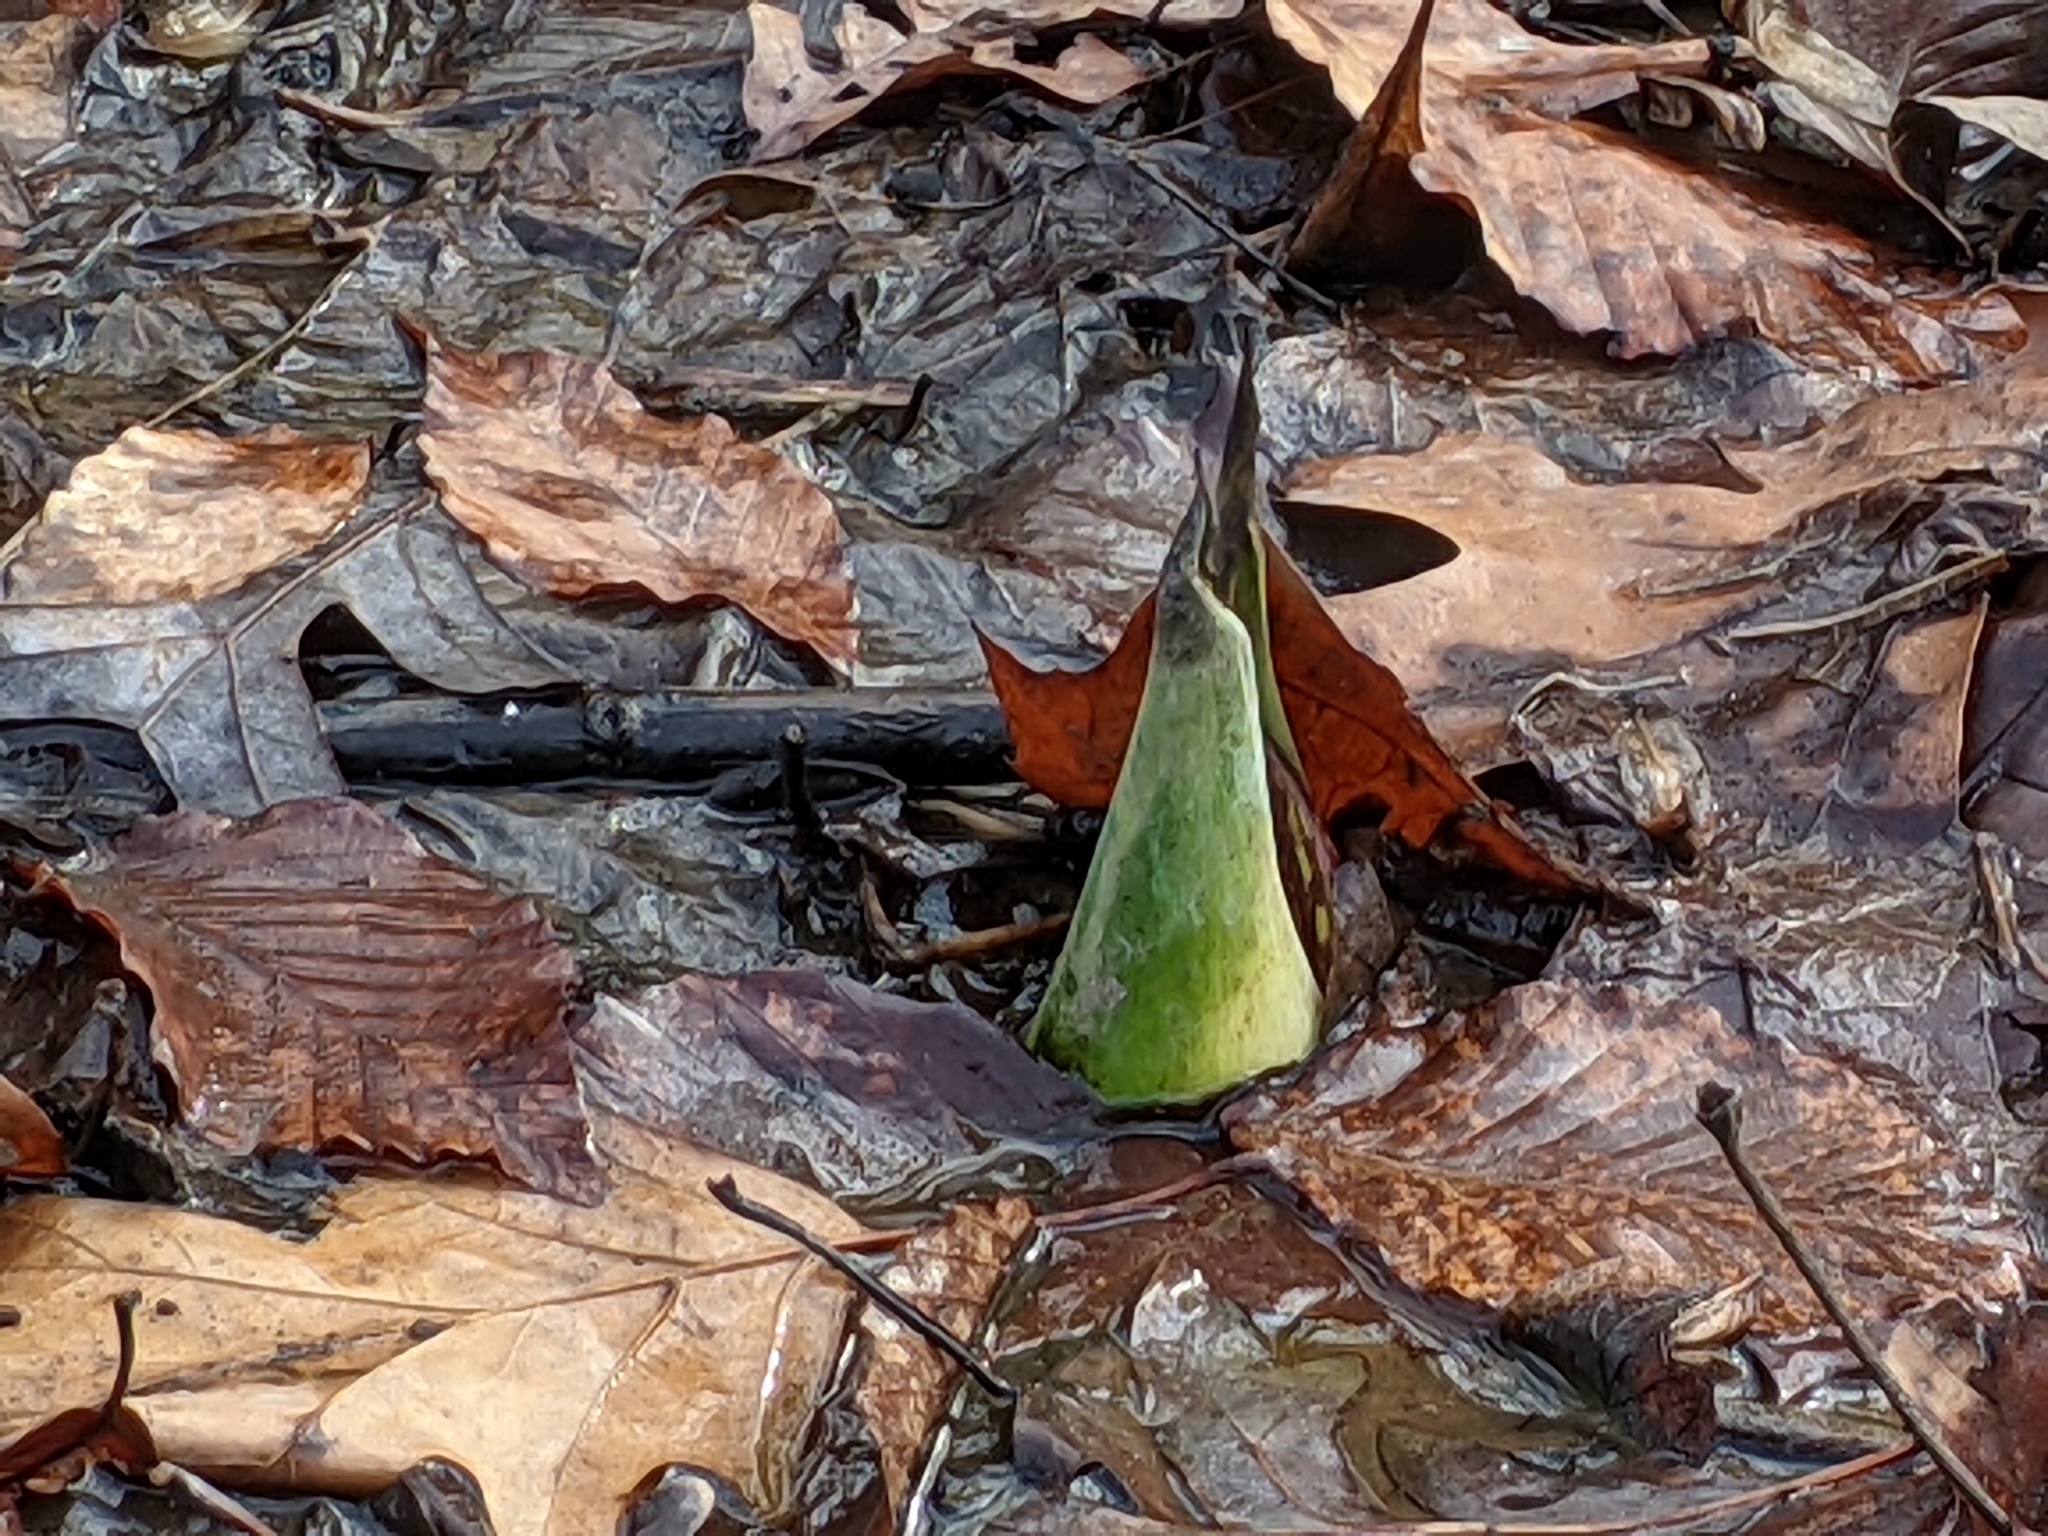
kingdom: Plantae
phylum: Tracheophyta
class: Liliopsida
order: Alismatales
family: Araceae
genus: Symplocarpus
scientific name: Symplocarpus foetidus
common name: Eastern skunk cabbage
